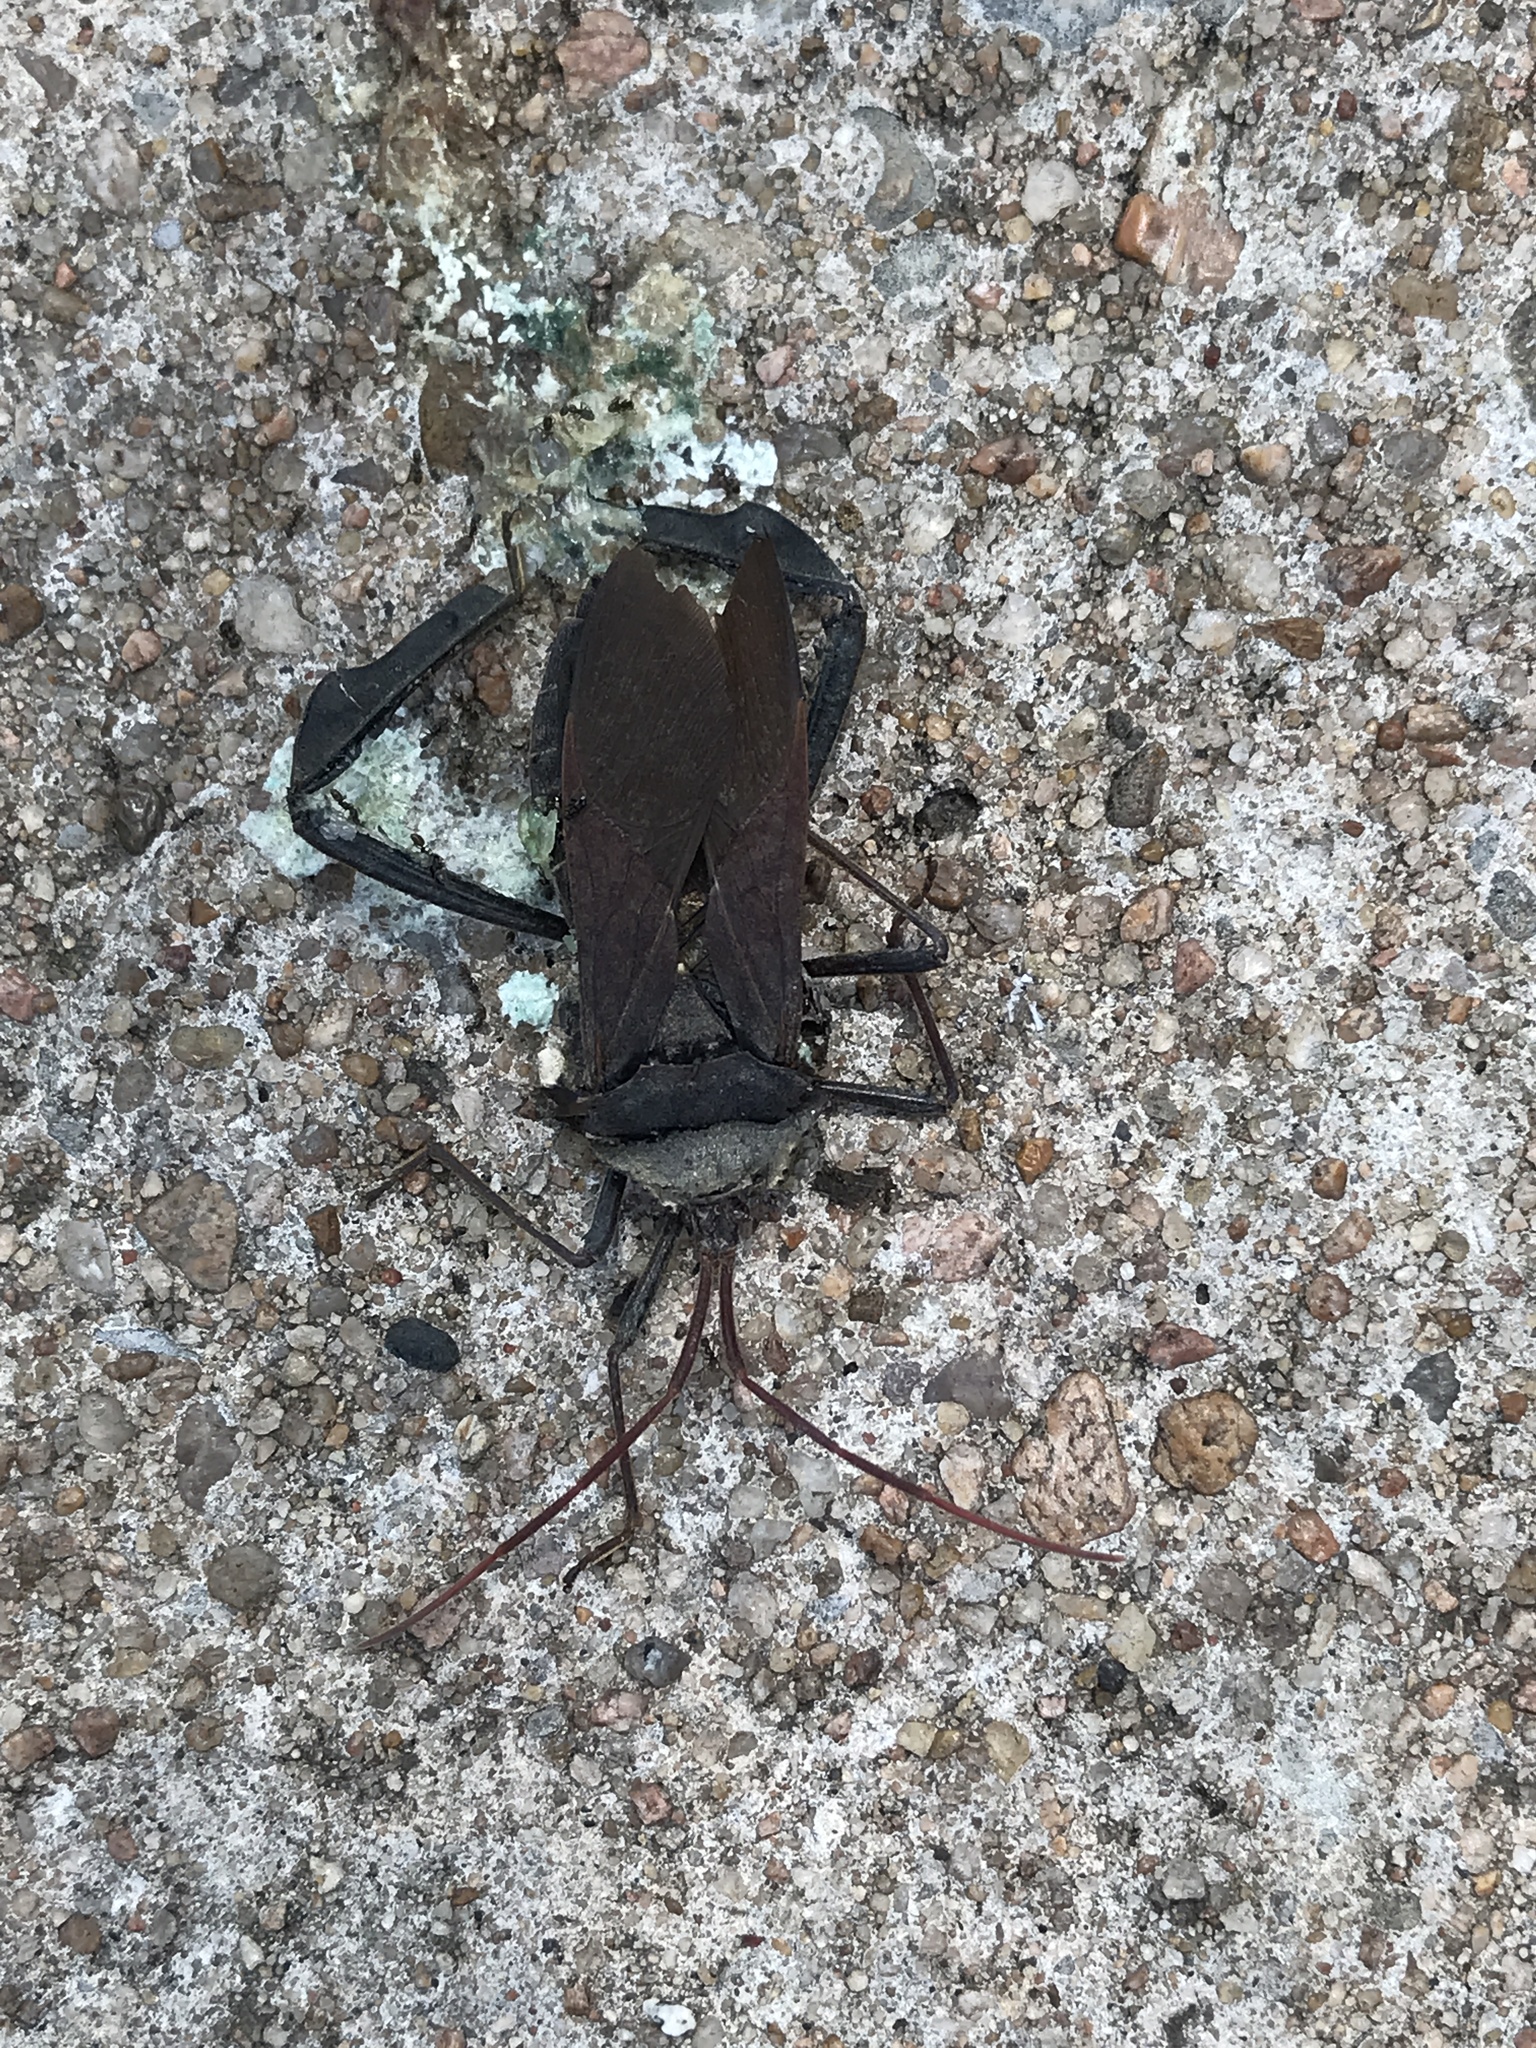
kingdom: Animalia
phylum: Arthropoda
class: Insecta
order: Hemiptera
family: Coreidae
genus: Acanthocephala
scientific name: Acanthocephala declivis
